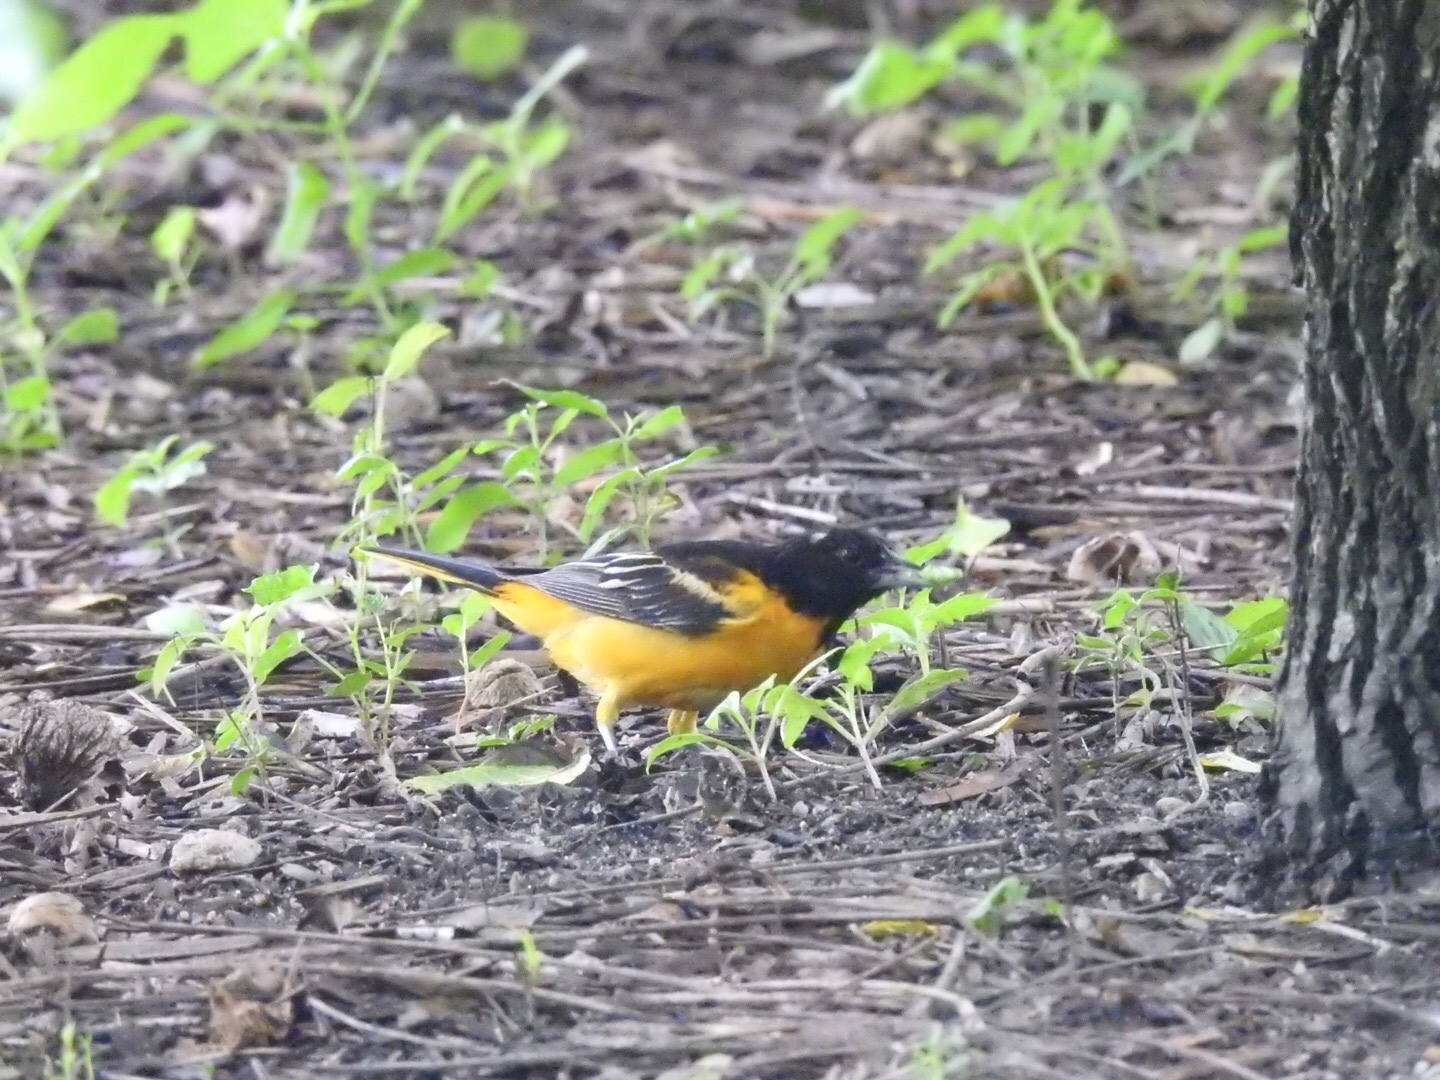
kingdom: Animalia
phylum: Chordata
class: Aves
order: Passeriformes
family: Icteridae
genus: Icterus
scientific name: Icterus galbula
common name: Baltimore oriole
